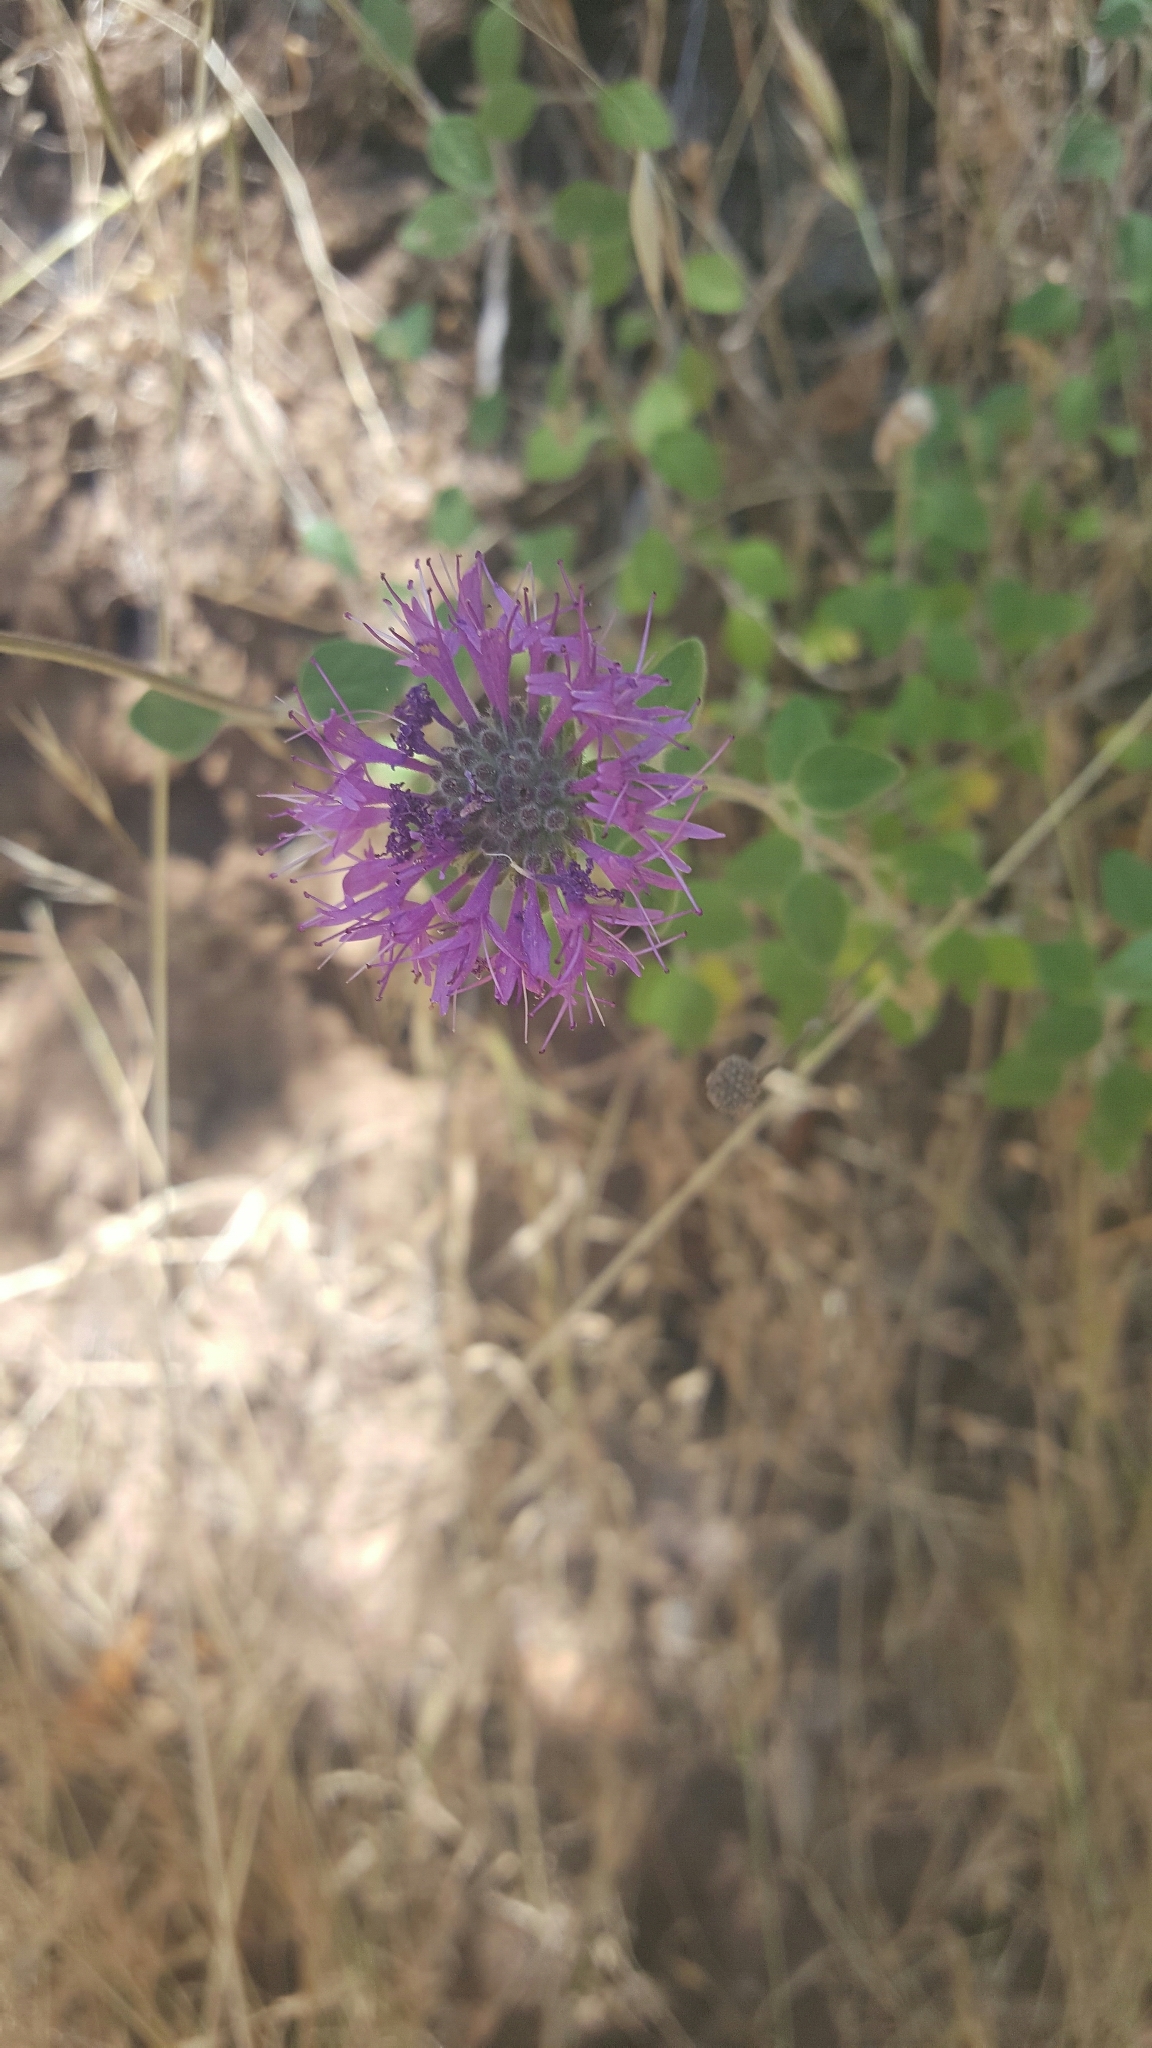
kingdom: Plantae
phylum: Tracheophyta
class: Magnoliopsida
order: Lamiales
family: Lamiaceae
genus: Monardella
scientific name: Monardella odoratissima
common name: Pacific monardella
